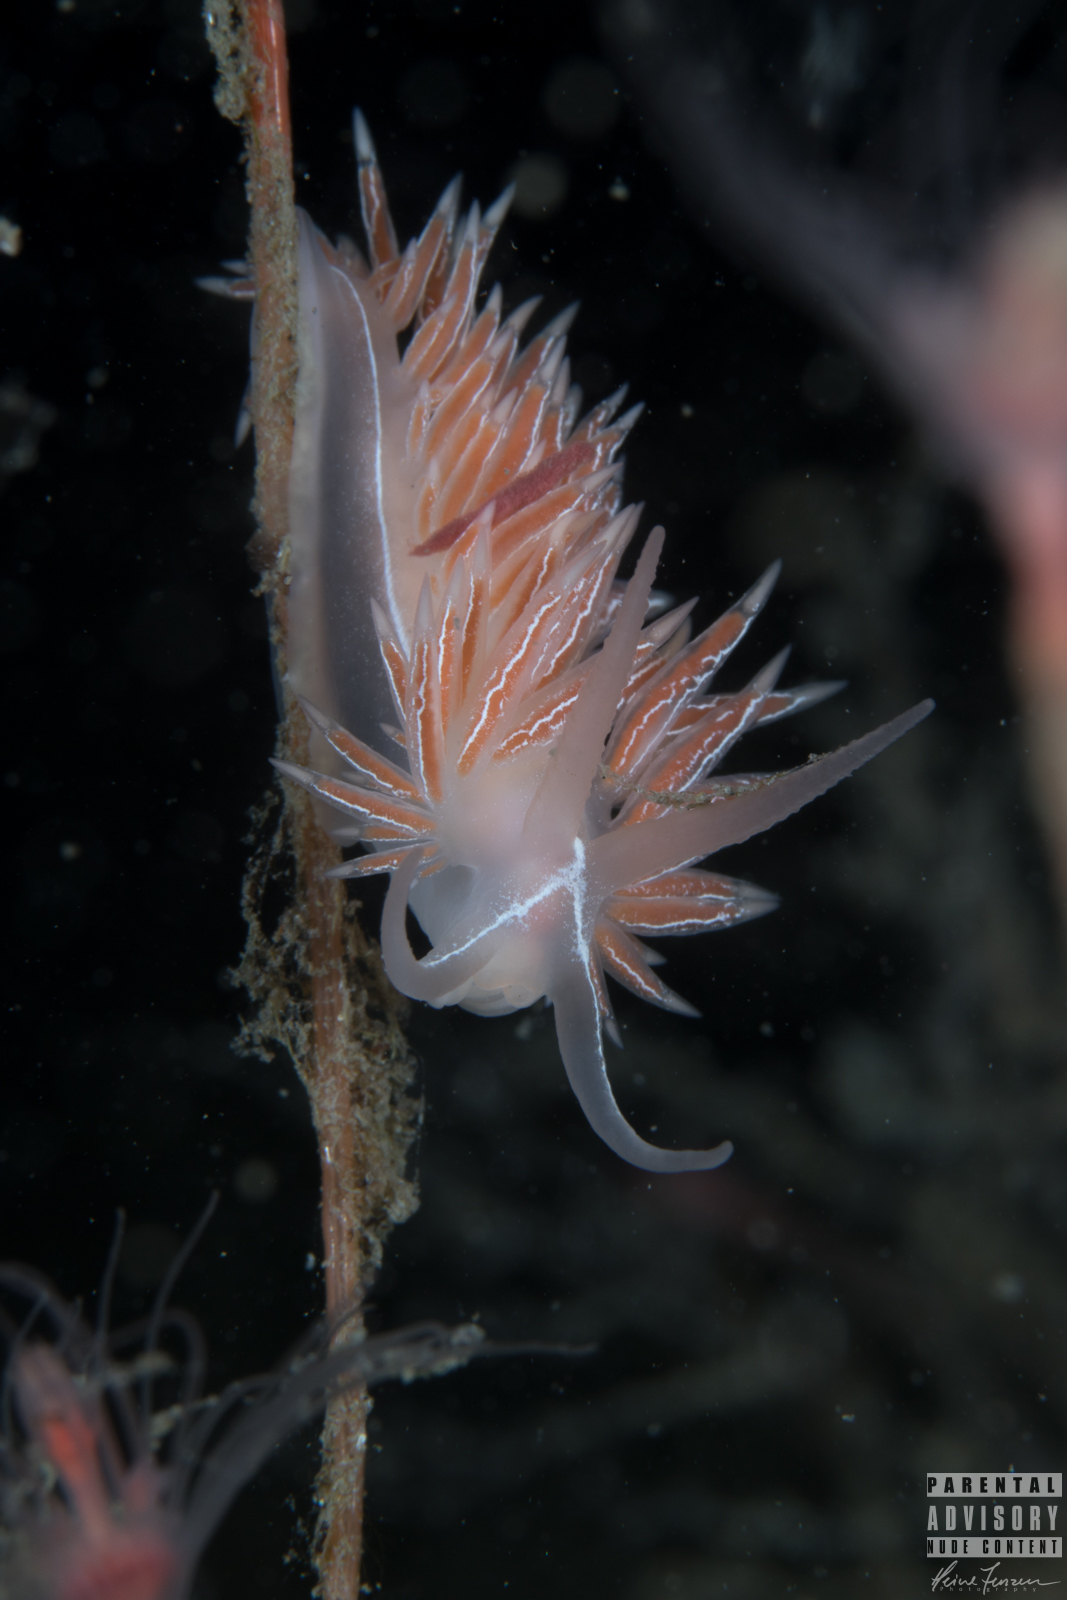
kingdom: Animalia
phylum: Mollusca
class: Gastropoda
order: Nudibranchia
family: Coryphellidae
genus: Coryphella
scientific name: Coryphella chriskaugei
